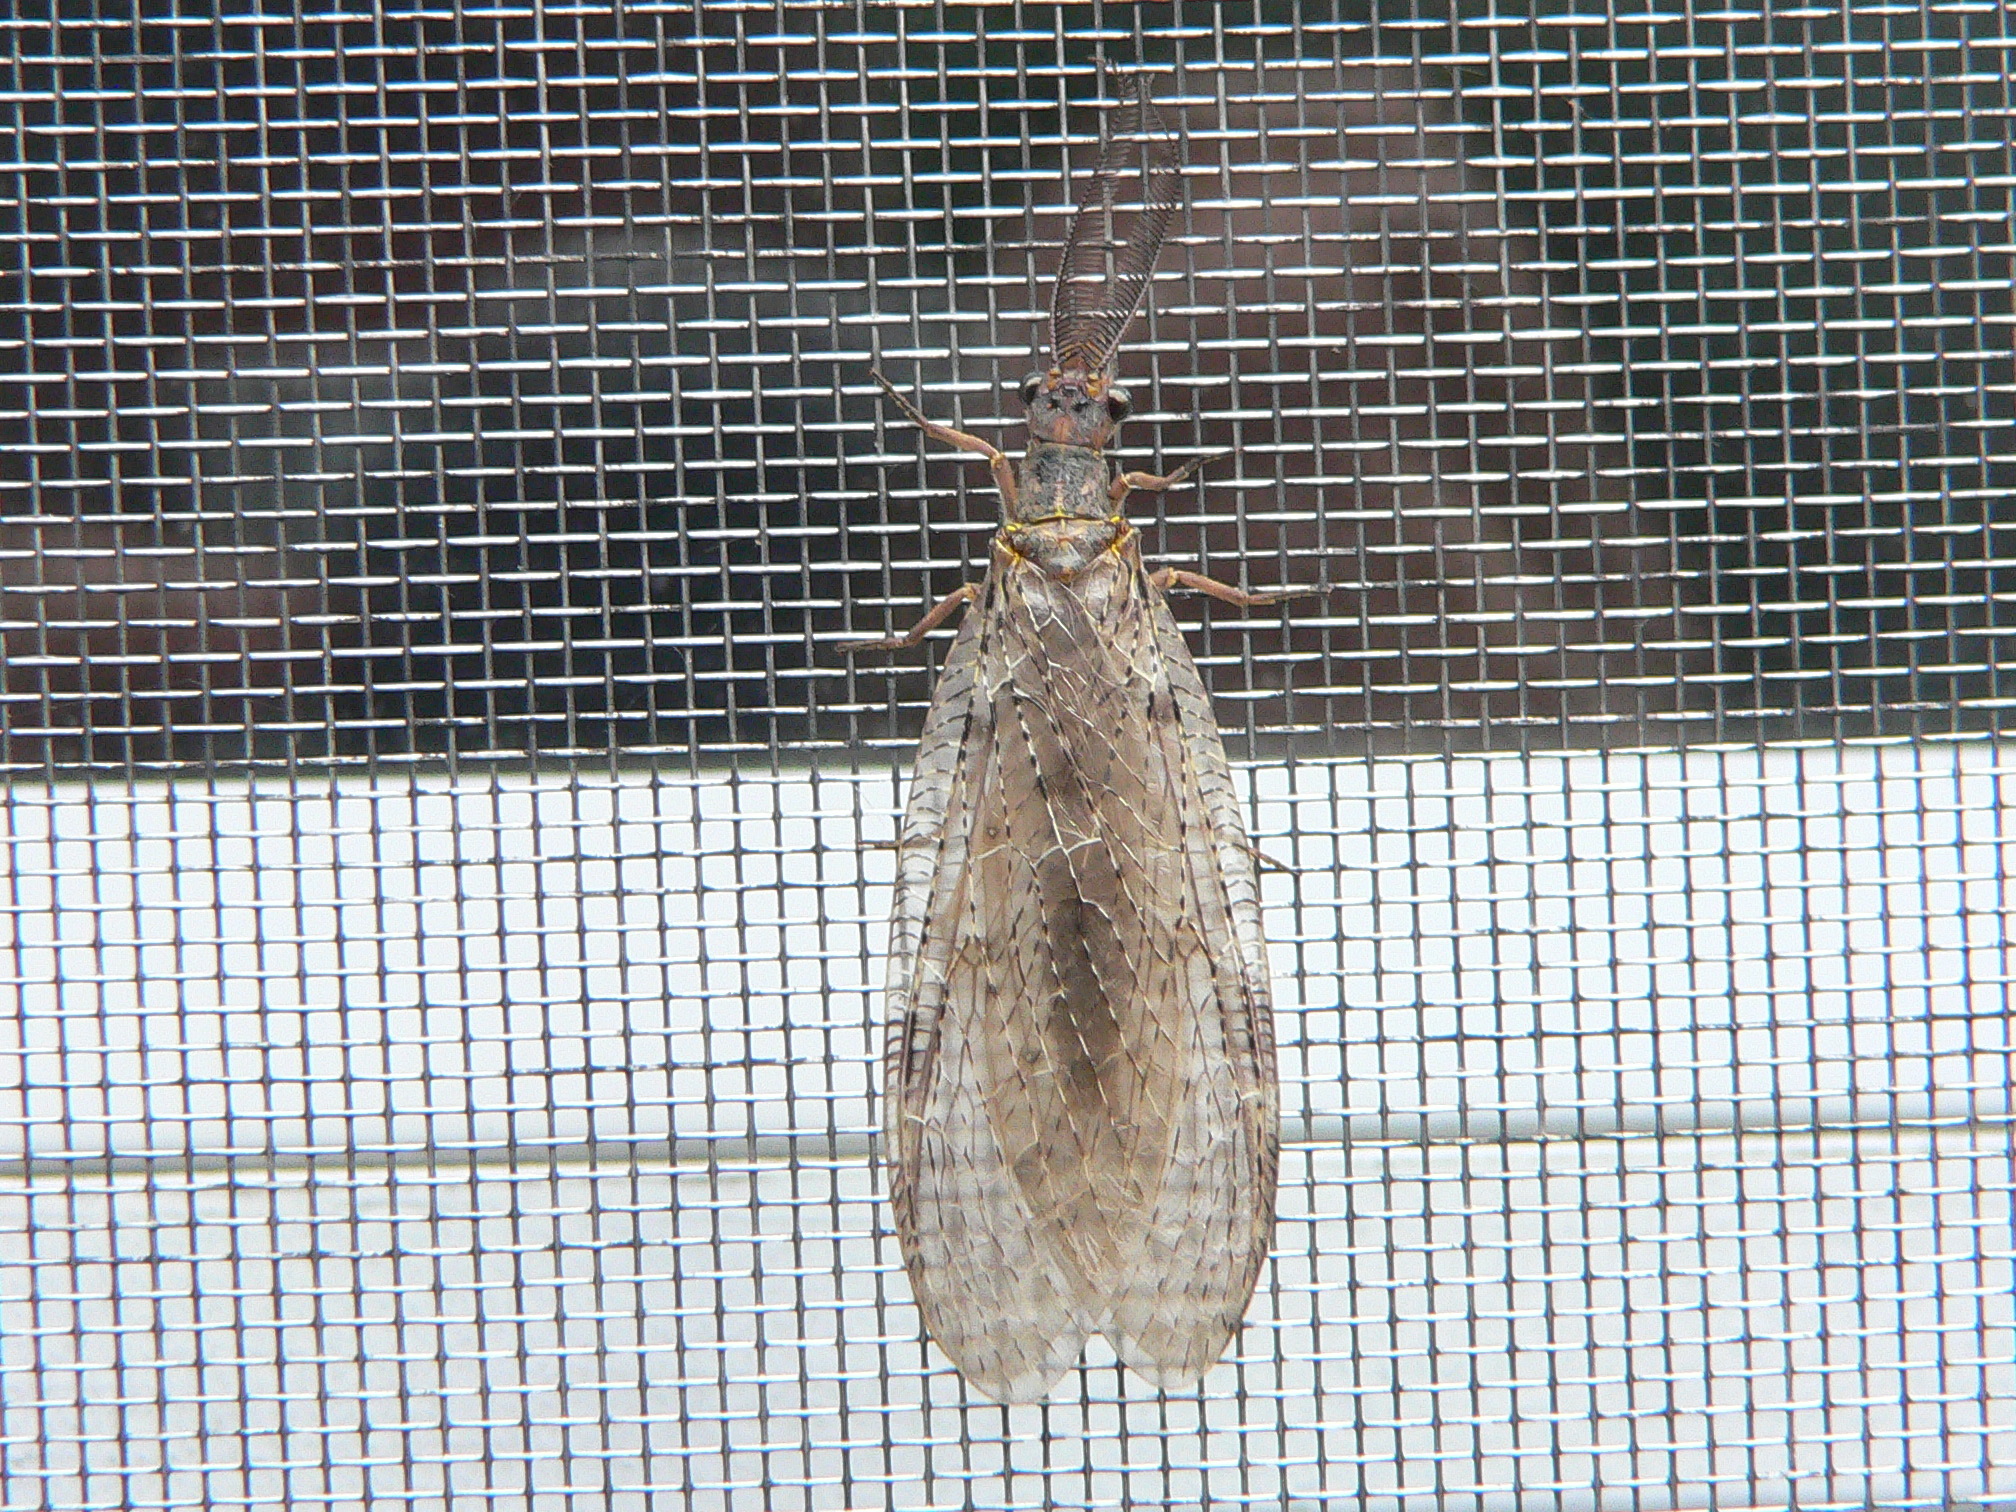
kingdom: Animalia
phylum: Arthropoda
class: Insecta
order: Megaloptera
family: Corydalidae
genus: Chauliodes
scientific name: Chauliodes pectinicornis
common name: Summer fishfly
